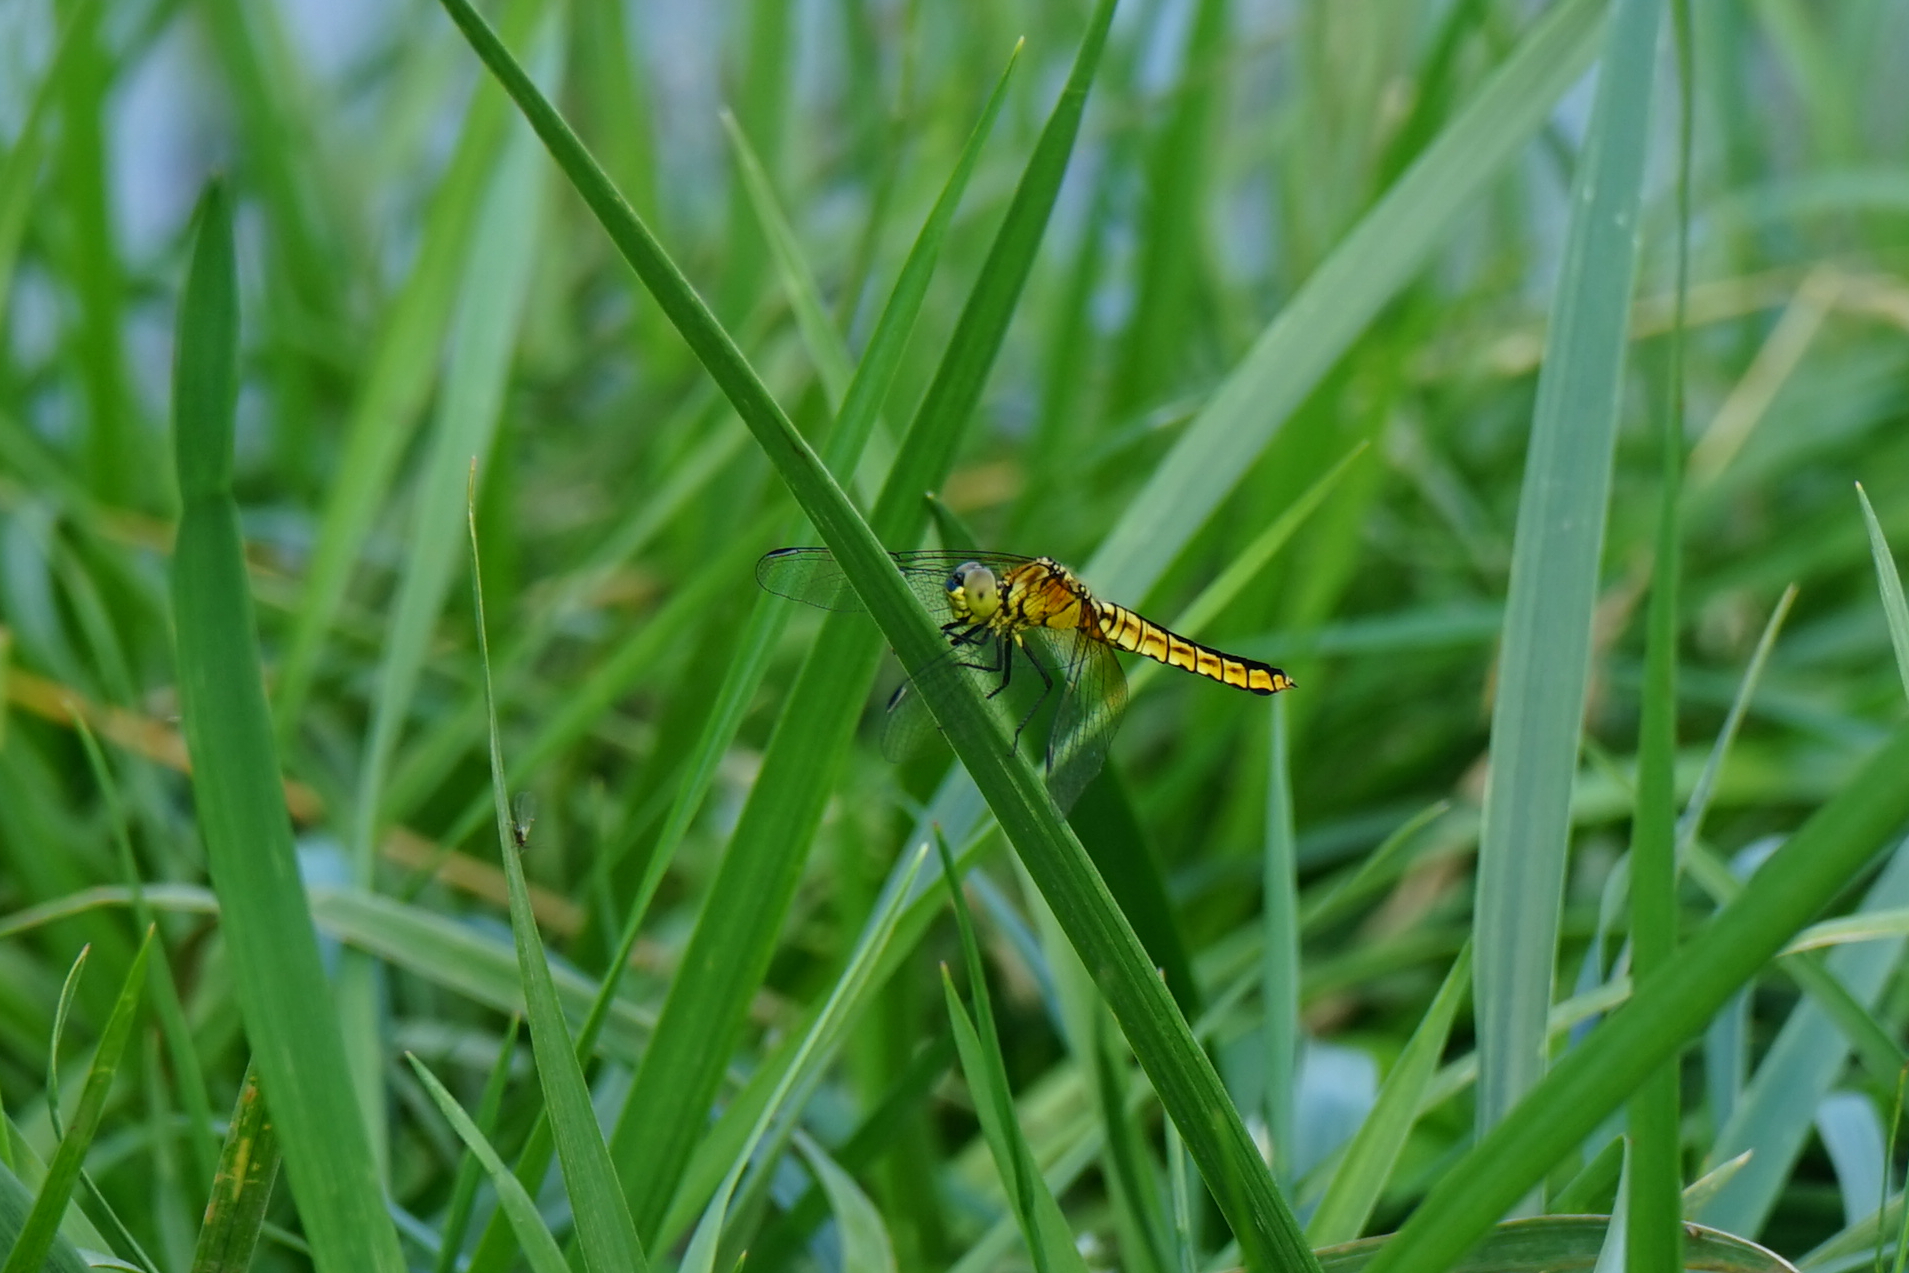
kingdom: Animalia
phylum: Arthropoda
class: Insecta
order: Odonata
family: Libellulidae
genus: Lyriothemis
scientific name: Lyriothemis pachygastra
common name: Wide-bellied skimmer
